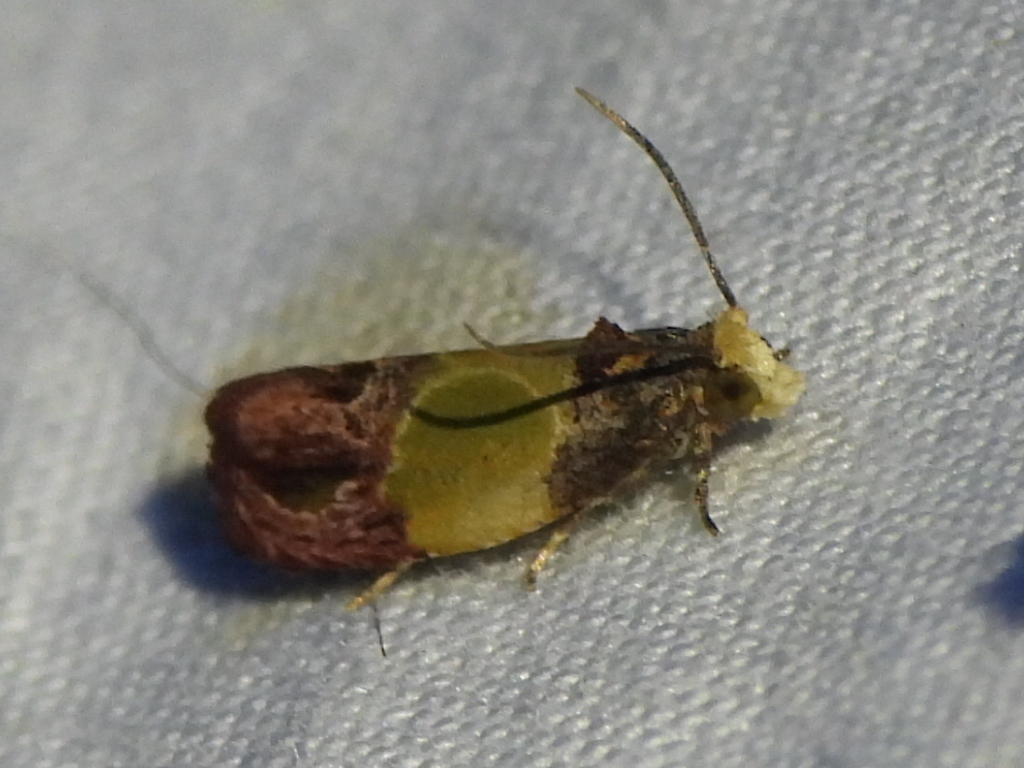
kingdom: Animalia
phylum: Arthropoda
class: Insecta
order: Lepidoptera
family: Tortricidae
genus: Eumarozia
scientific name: Eumarozia malachitana
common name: Sculptured moth
